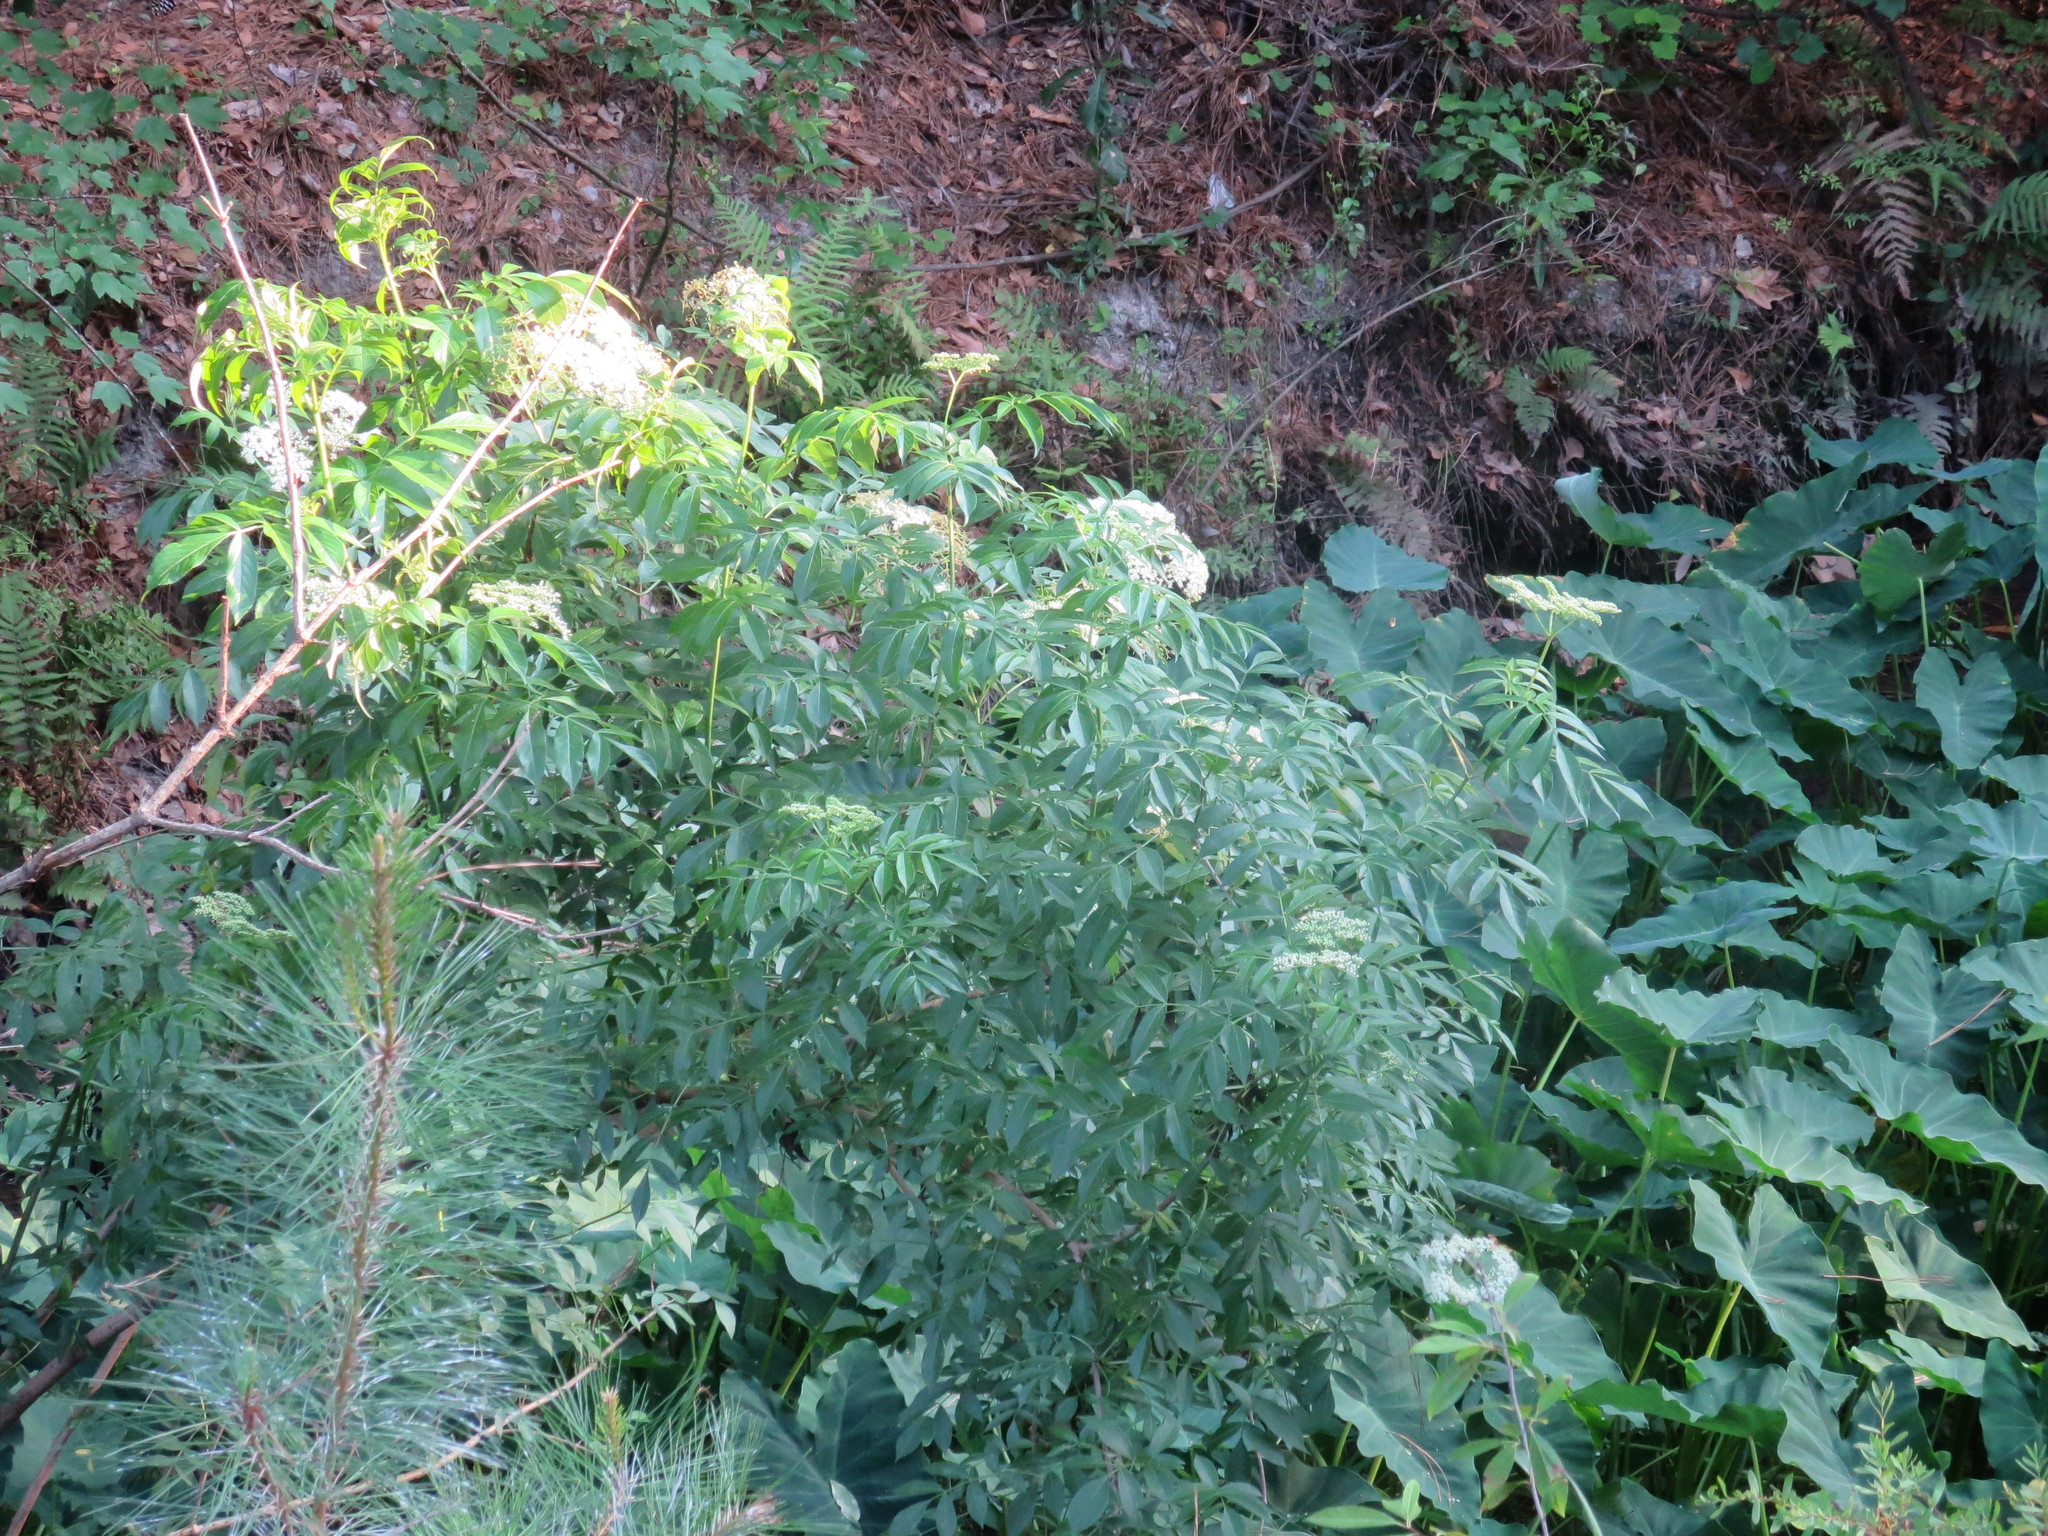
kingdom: Plantae
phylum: Tracheophyta
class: Magnoliopsida
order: Dipsacales
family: Viburnaceae
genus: Sambucus
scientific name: Sambucus canadensis
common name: American elder
